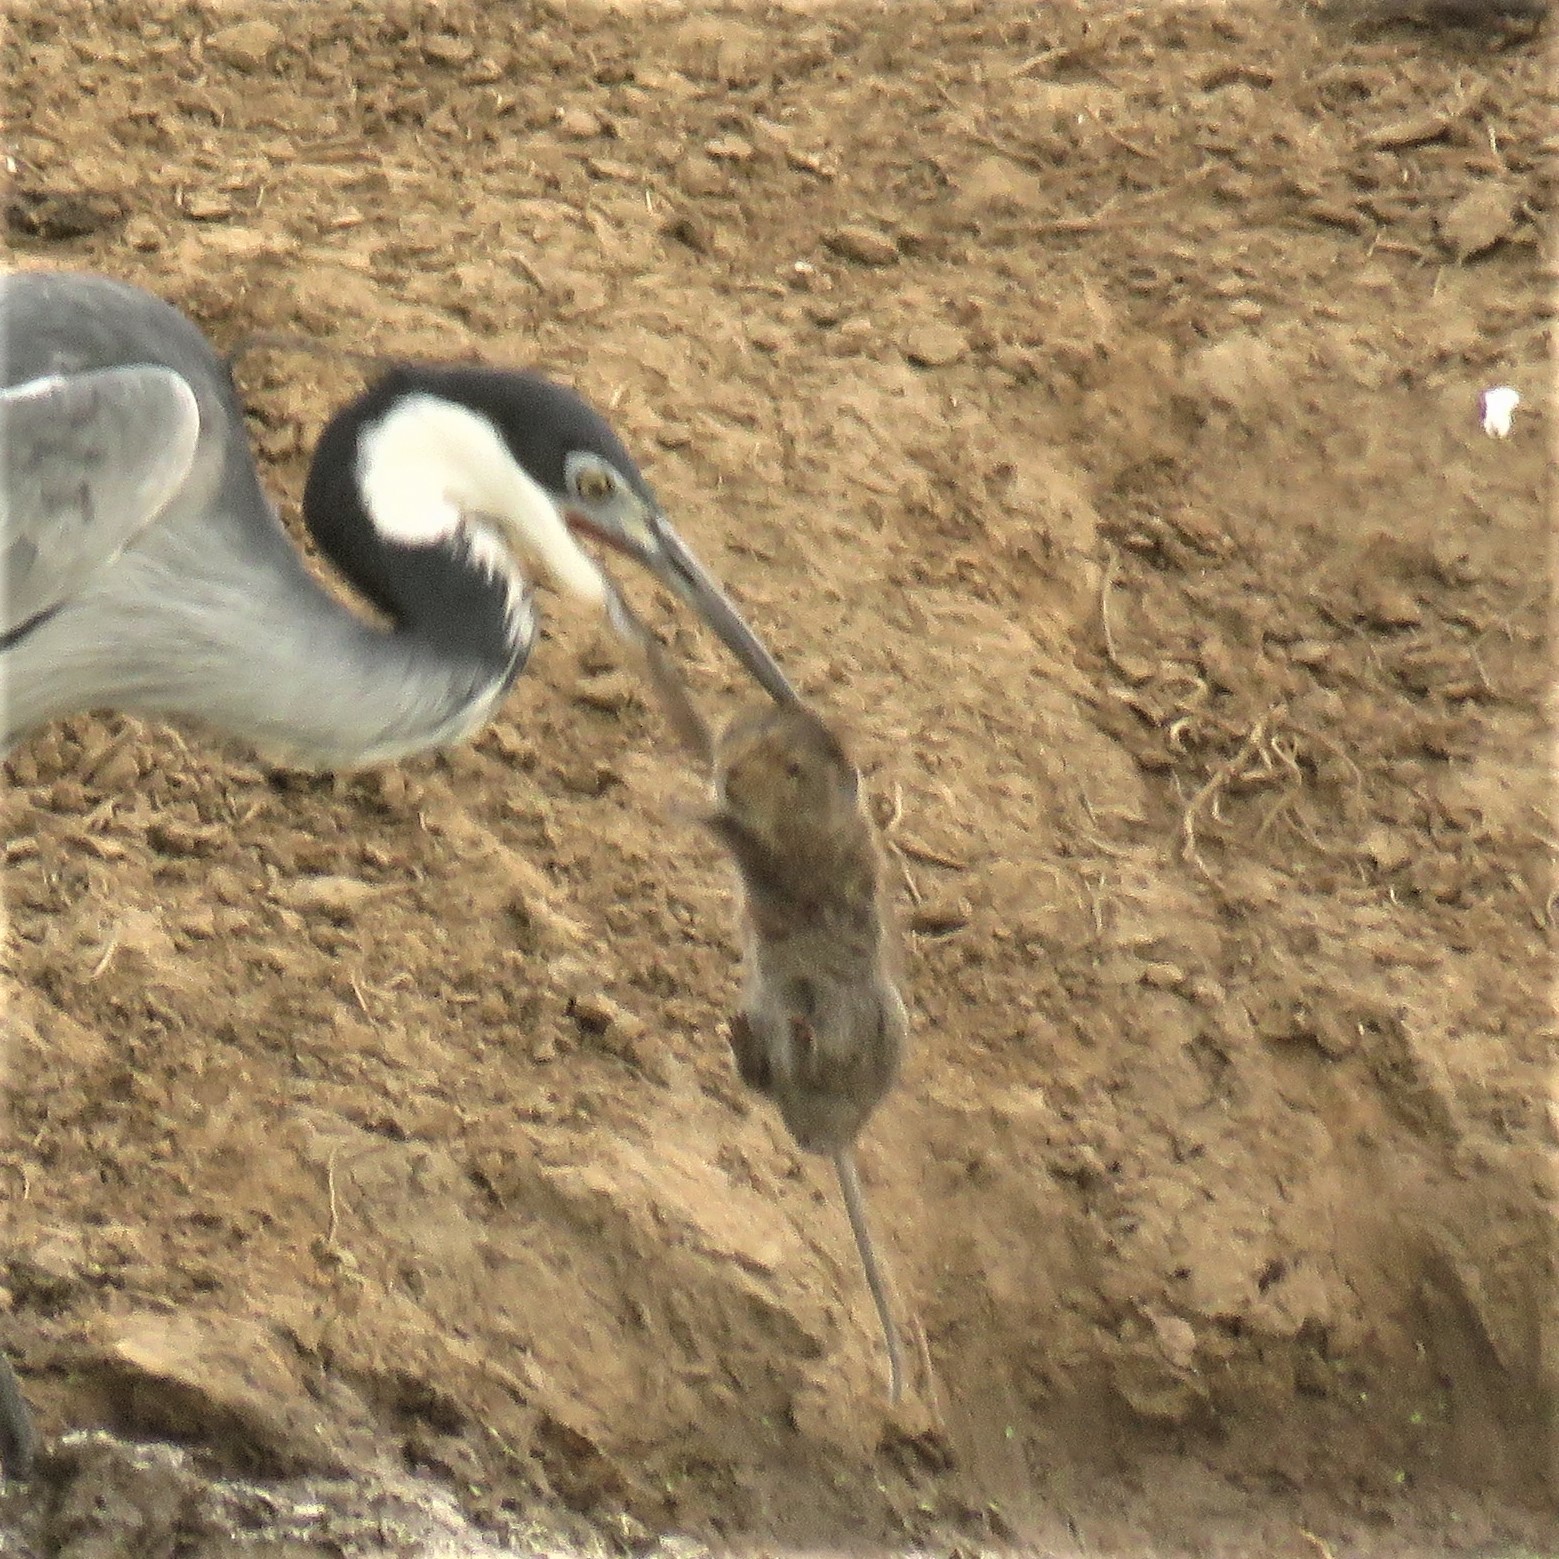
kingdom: Animalia
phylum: Chordata
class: Mammalia
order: Rodentia
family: Muridae
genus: Myotomys
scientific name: Myotomys unisulcatus
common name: Bush karroo rat
